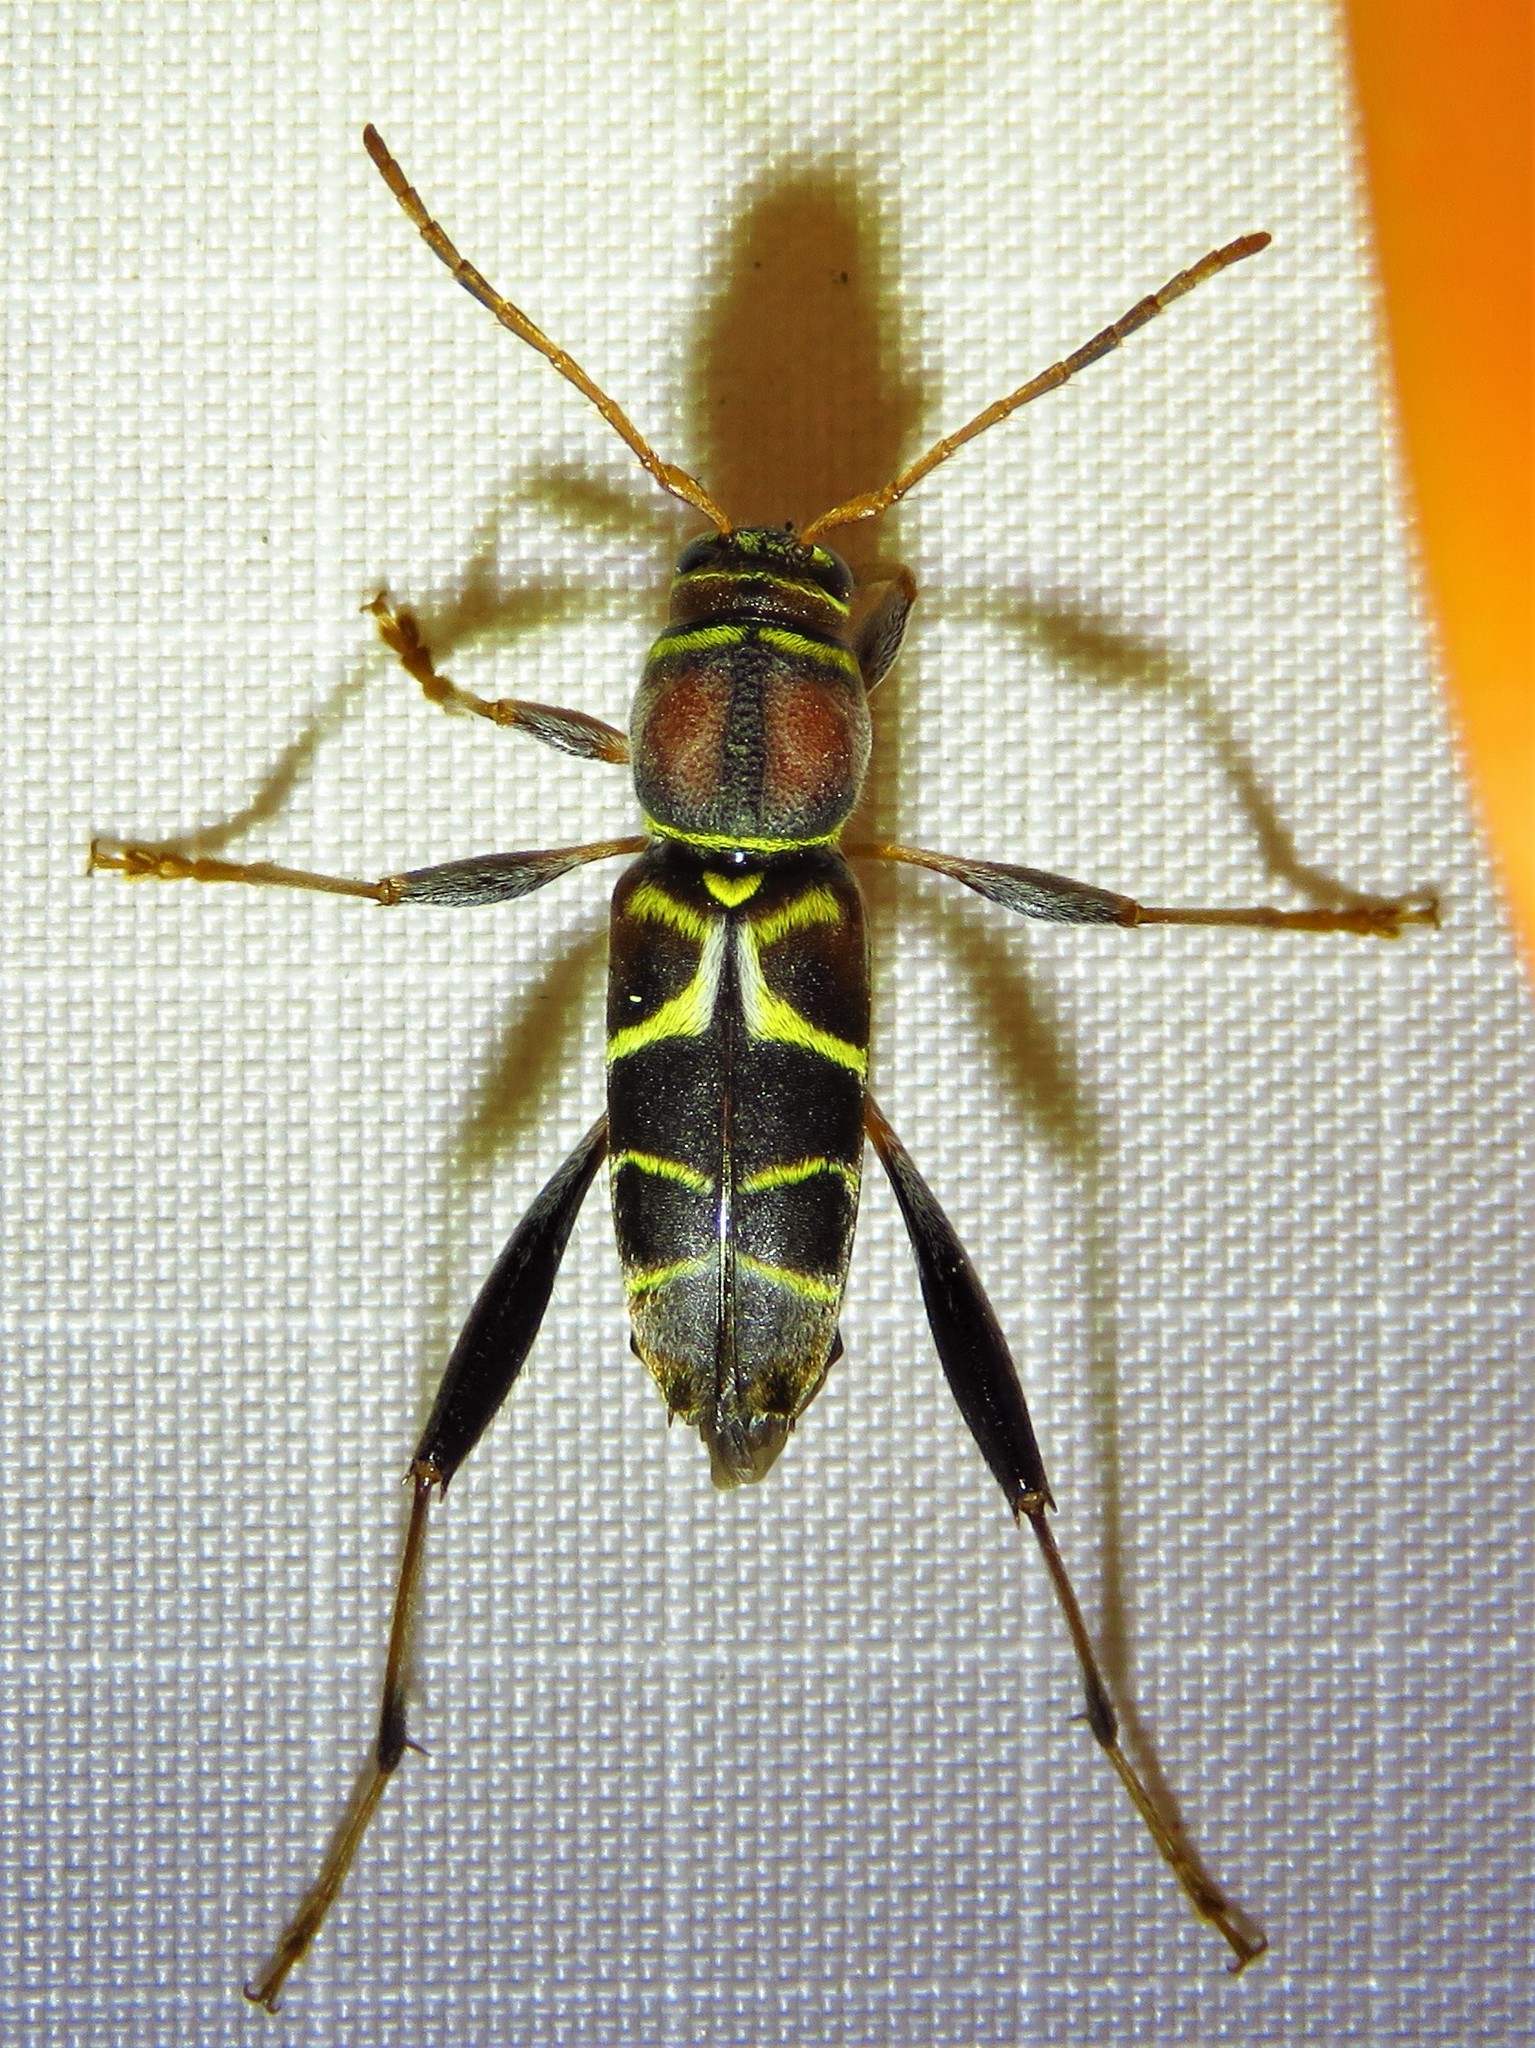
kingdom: Animalia
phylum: Arthropoda
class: Insecta
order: Coleoptera
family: Cerambycidae
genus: Neoclytus
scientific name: Neoclytus mucronatus
